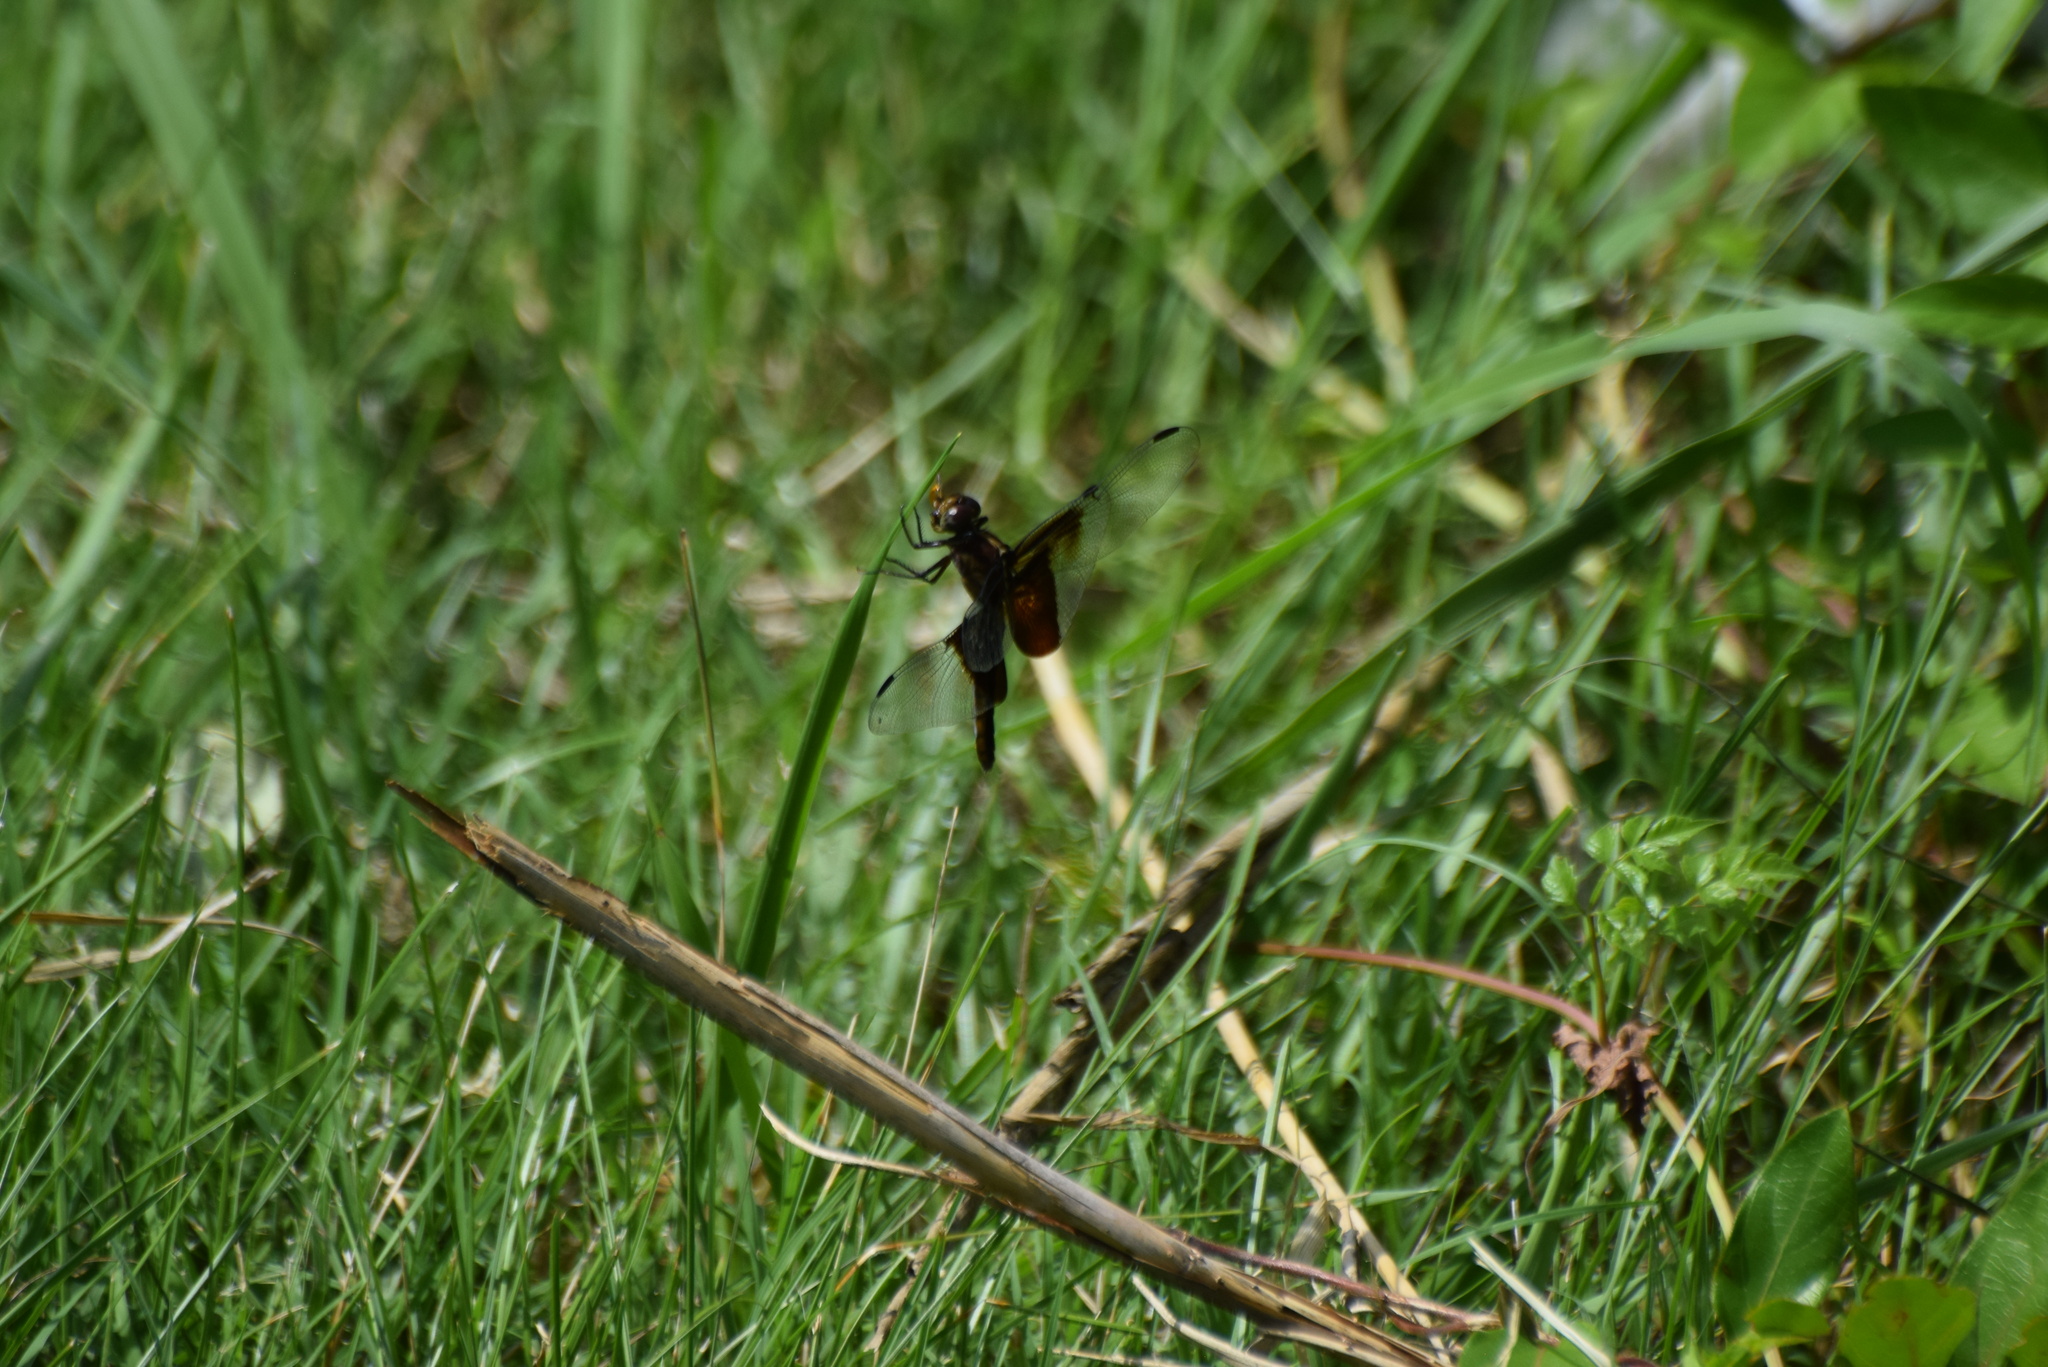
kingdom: Animalia
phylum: Arthropoda
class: Insecta
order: Odonata
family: Libellulidae
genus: Libellula
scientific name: Libellula luctuosa
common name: Widow skimmer
